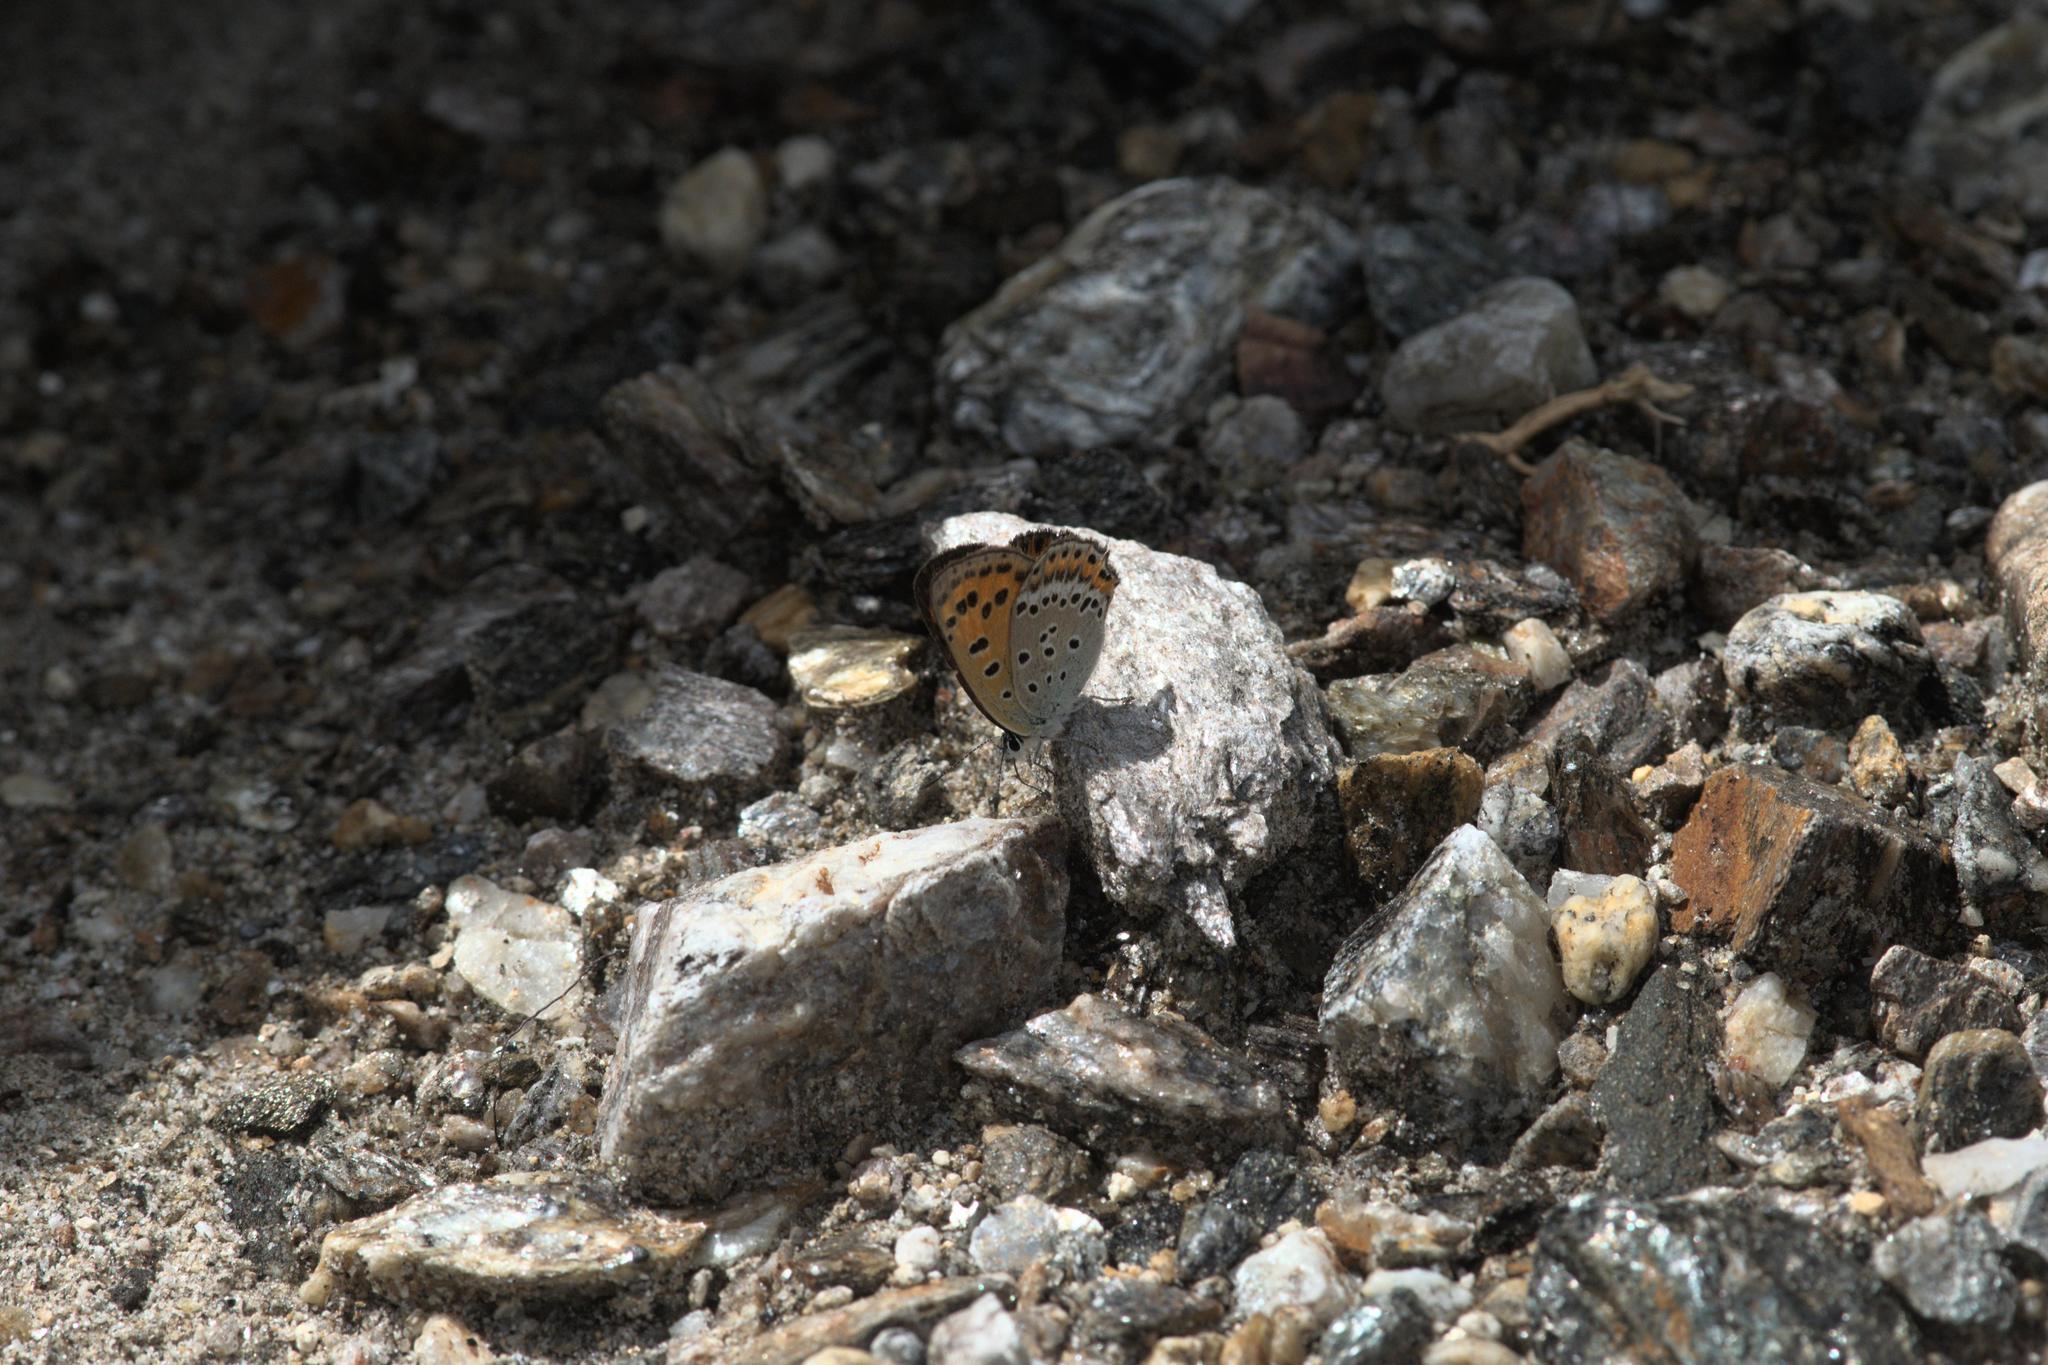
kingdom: Animalia
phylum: Arthropoda
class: Insecta
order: Lepidoptera
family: Lycaenidae
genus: Lycaena
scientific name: Lycaena panava
